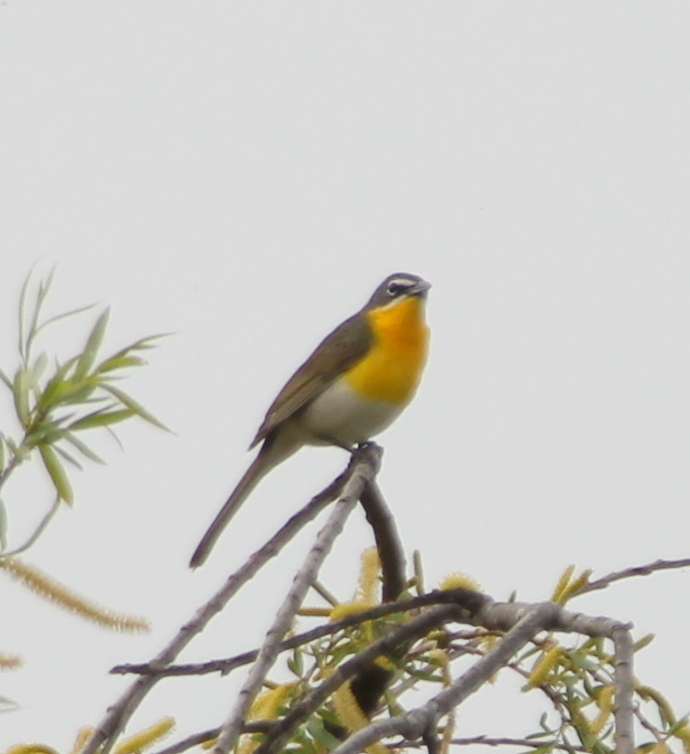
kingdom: Animalia
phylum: Chordata
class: Aves
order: Passeriformes
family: Parulidae
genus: Icteria
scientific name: Icteria virens
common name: Yellow-breasted chat
